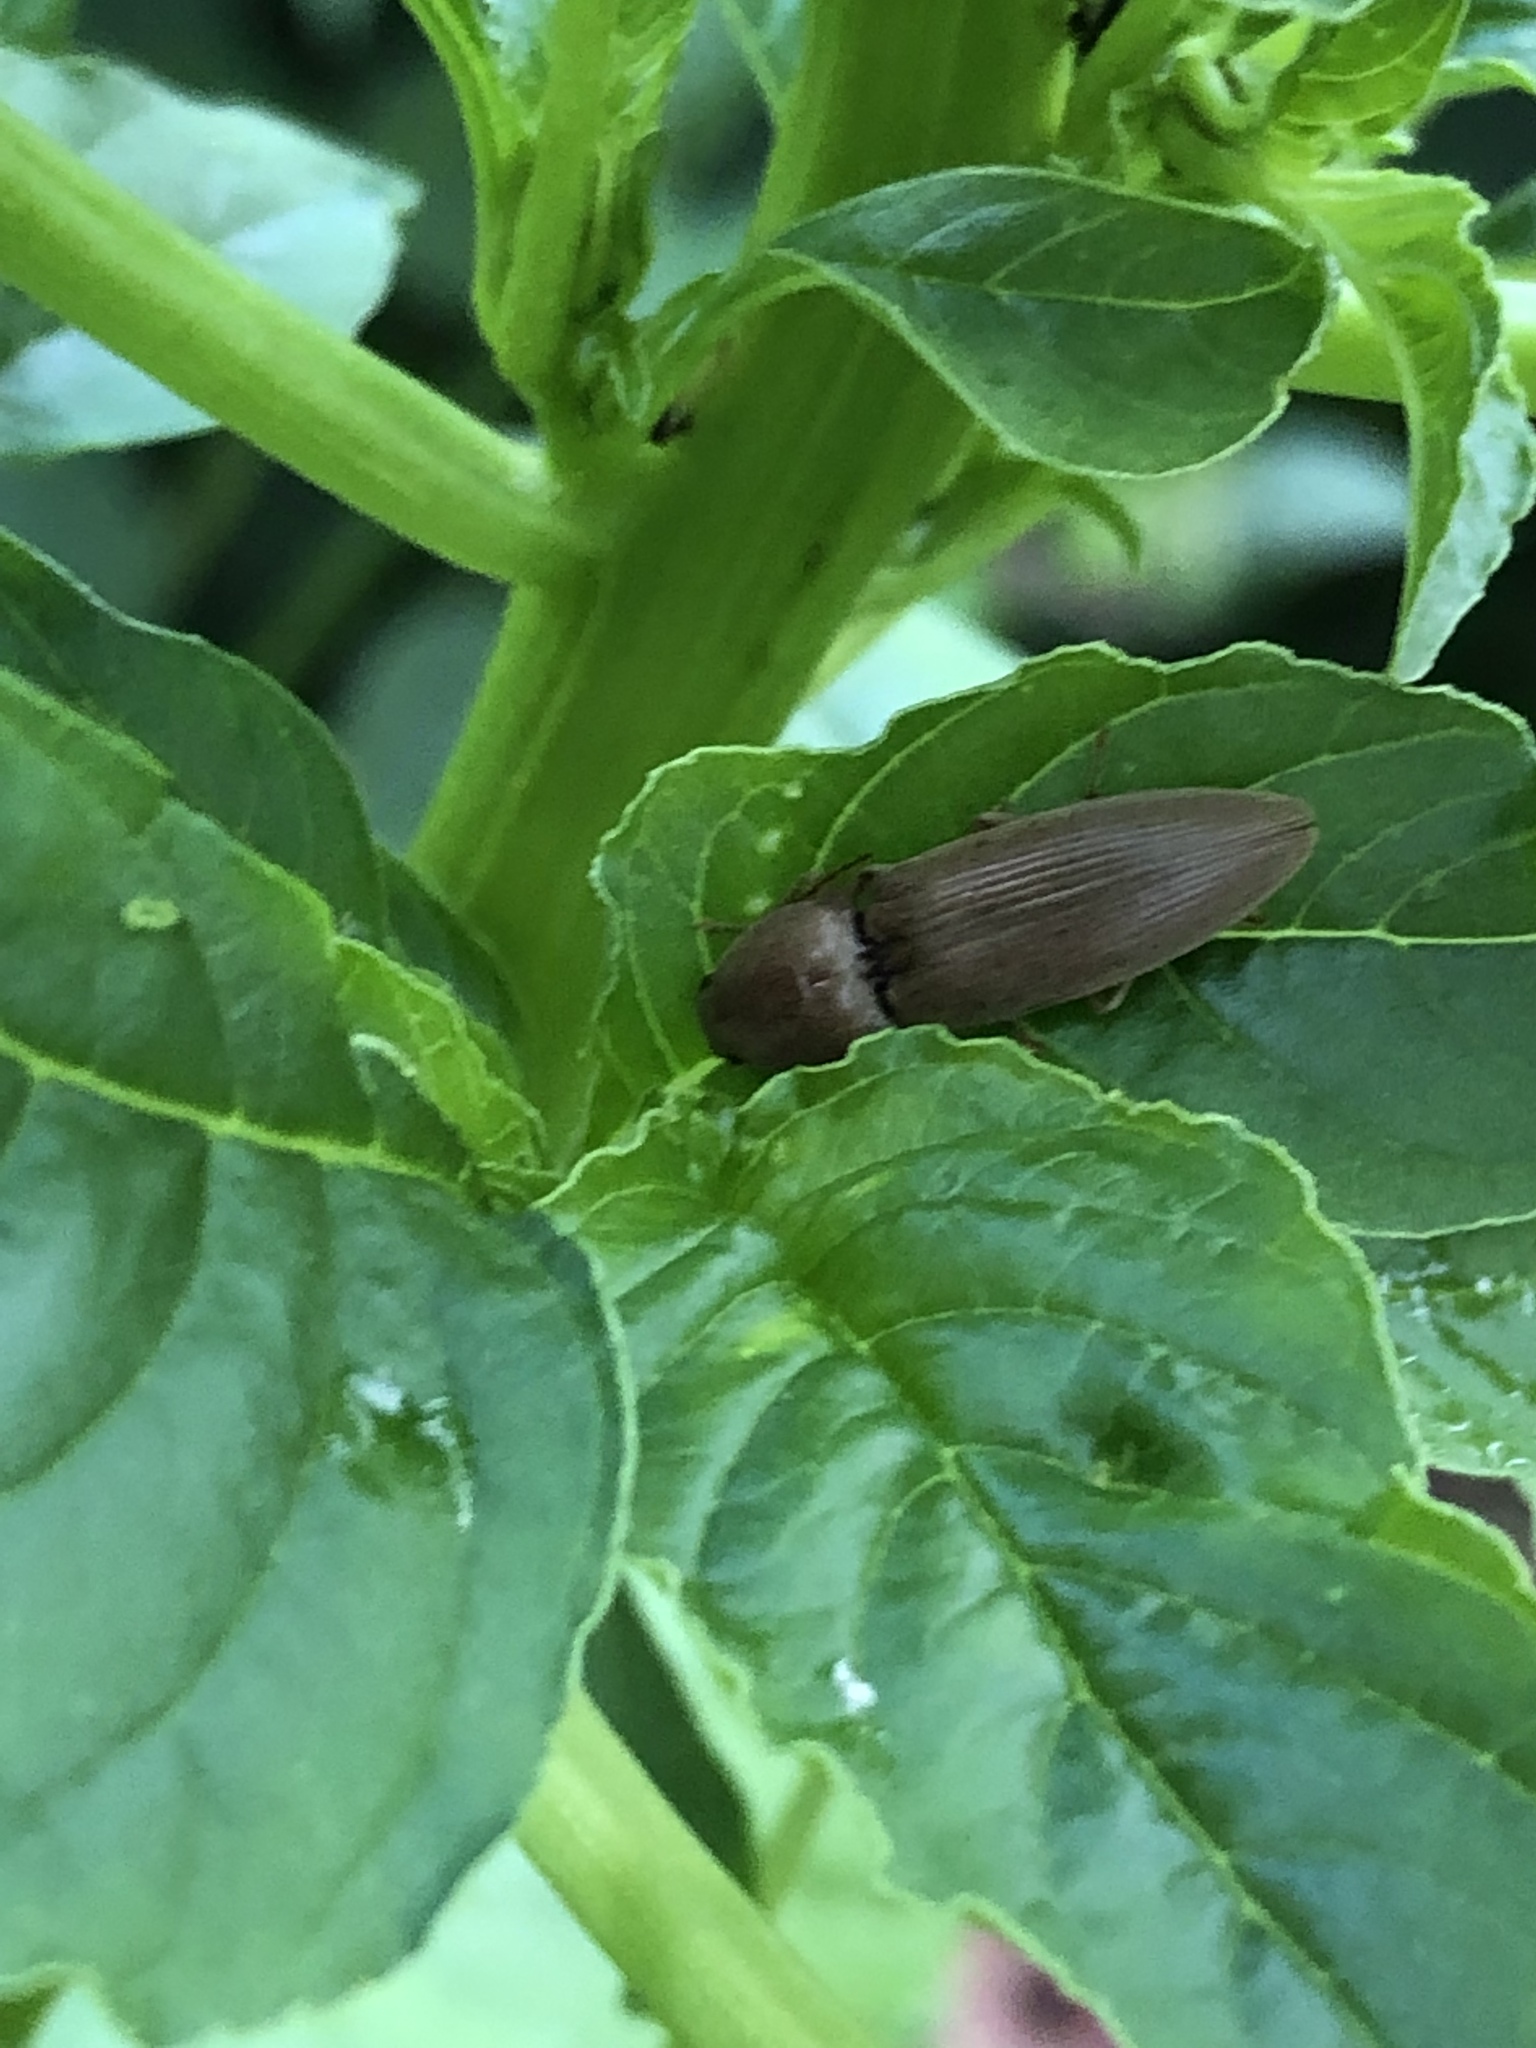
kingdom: Animalia
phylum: Arthropoda
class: Insecta
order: Coleoptera
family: Elateridae
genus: Monocrepidius
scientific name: Monocrepidius lividus
